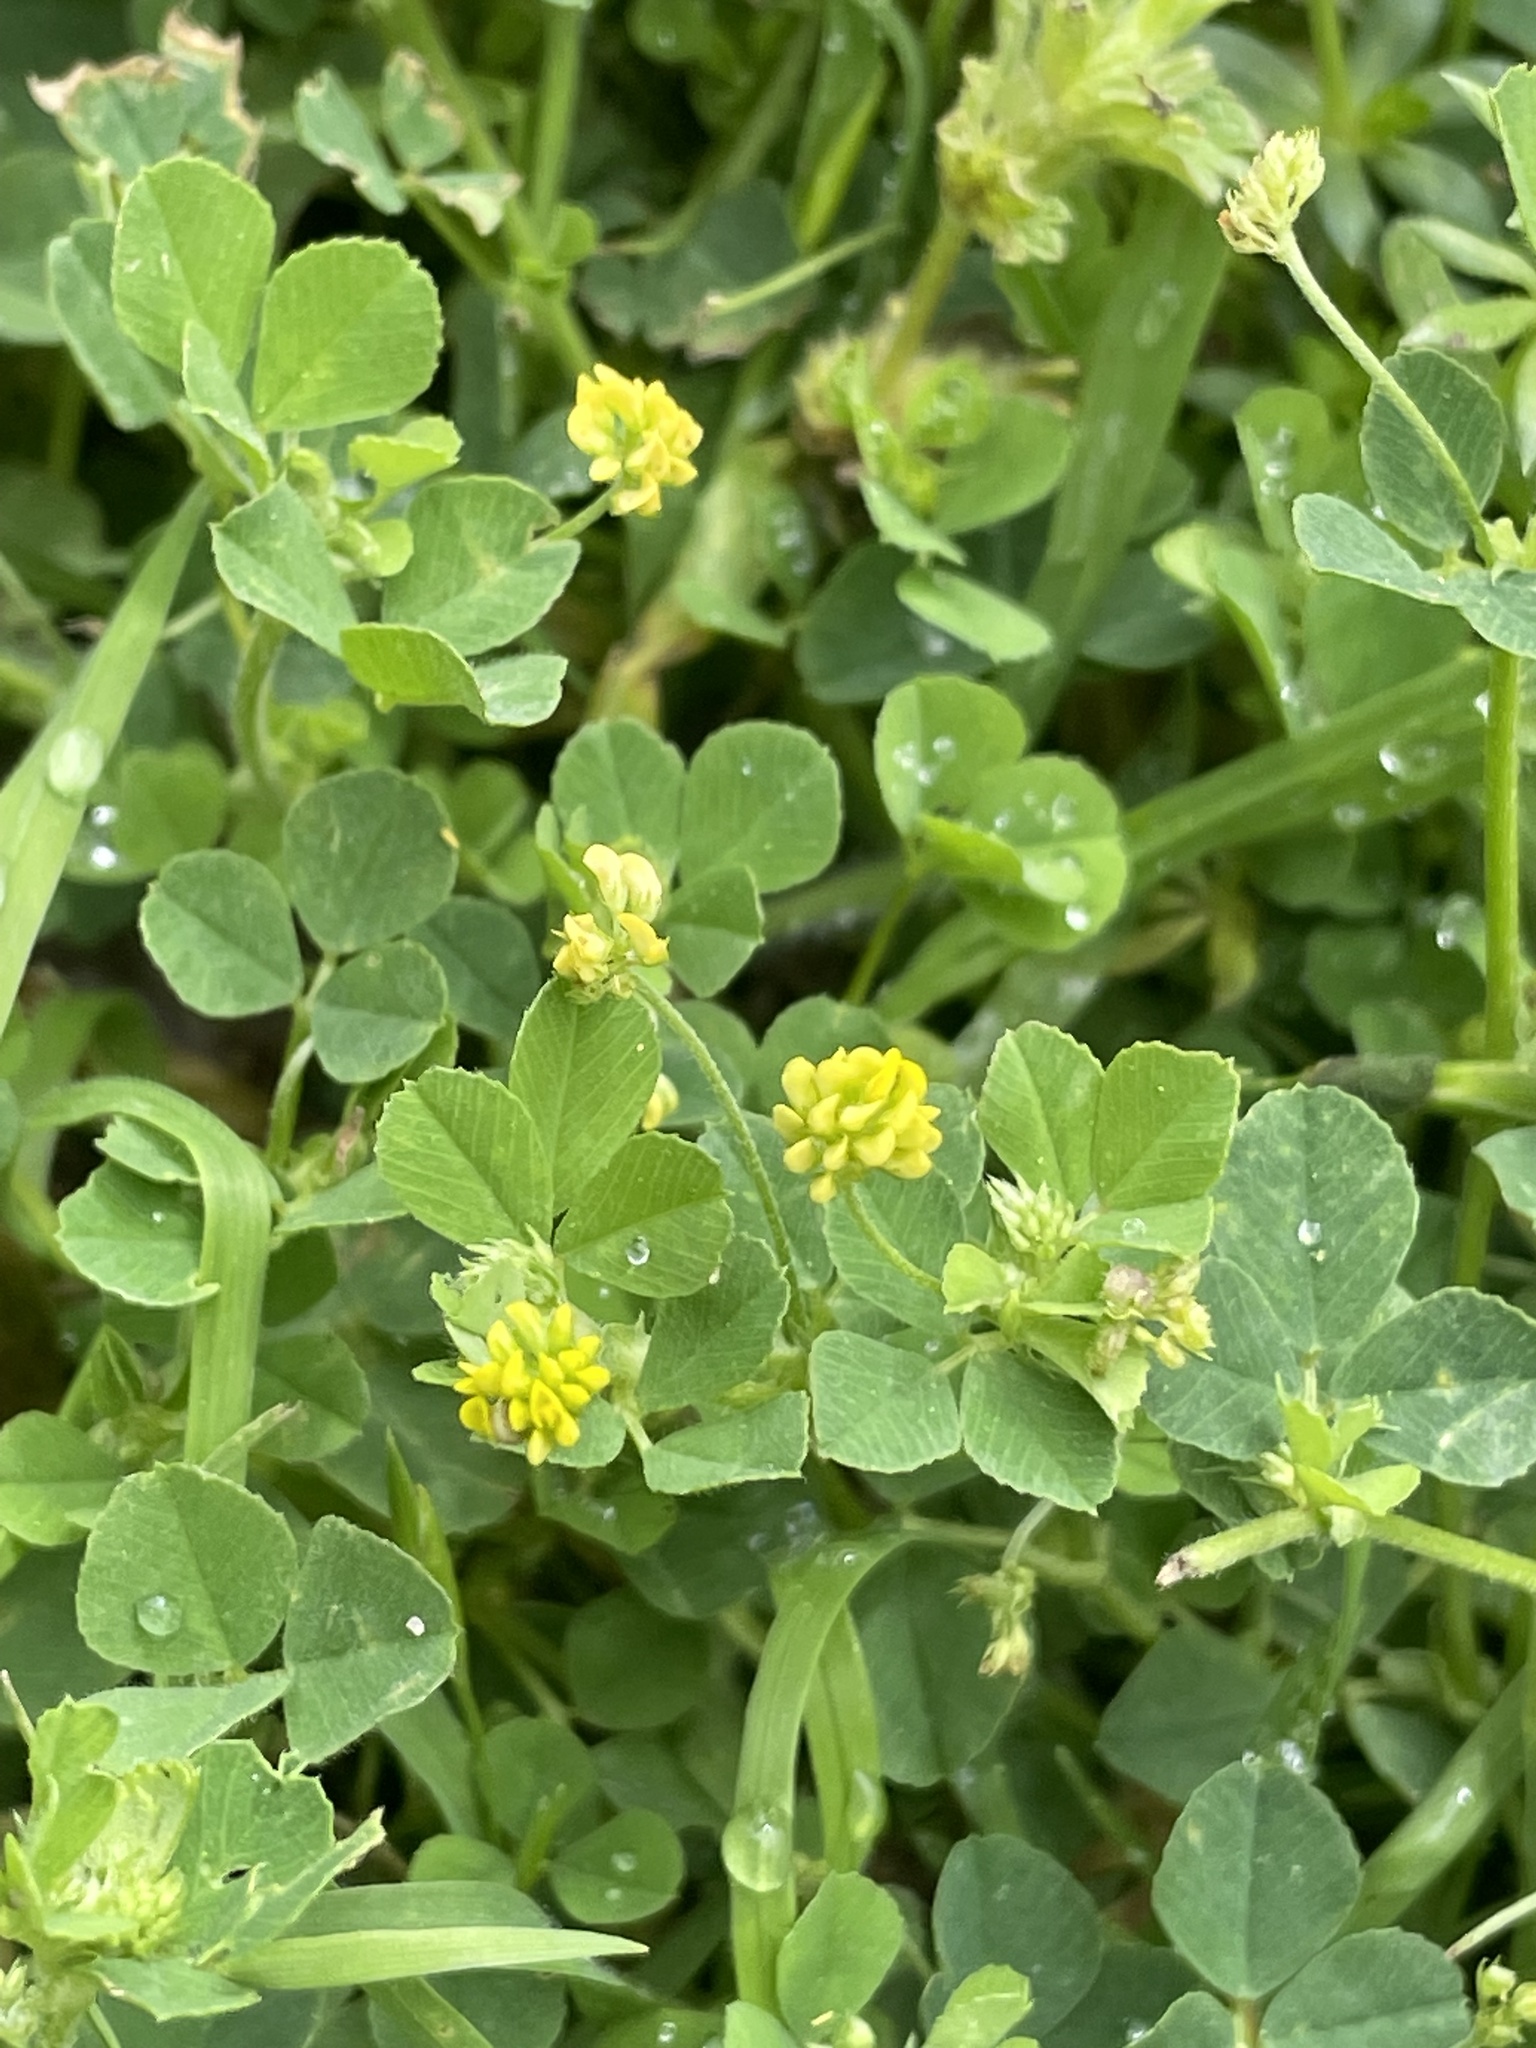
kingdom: Plantae
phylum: Tracheophyta
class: Magnoliopsida
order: Fabales
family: Fabaceae
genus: Medicago
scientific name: Medicago lupulina
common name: Black medick
